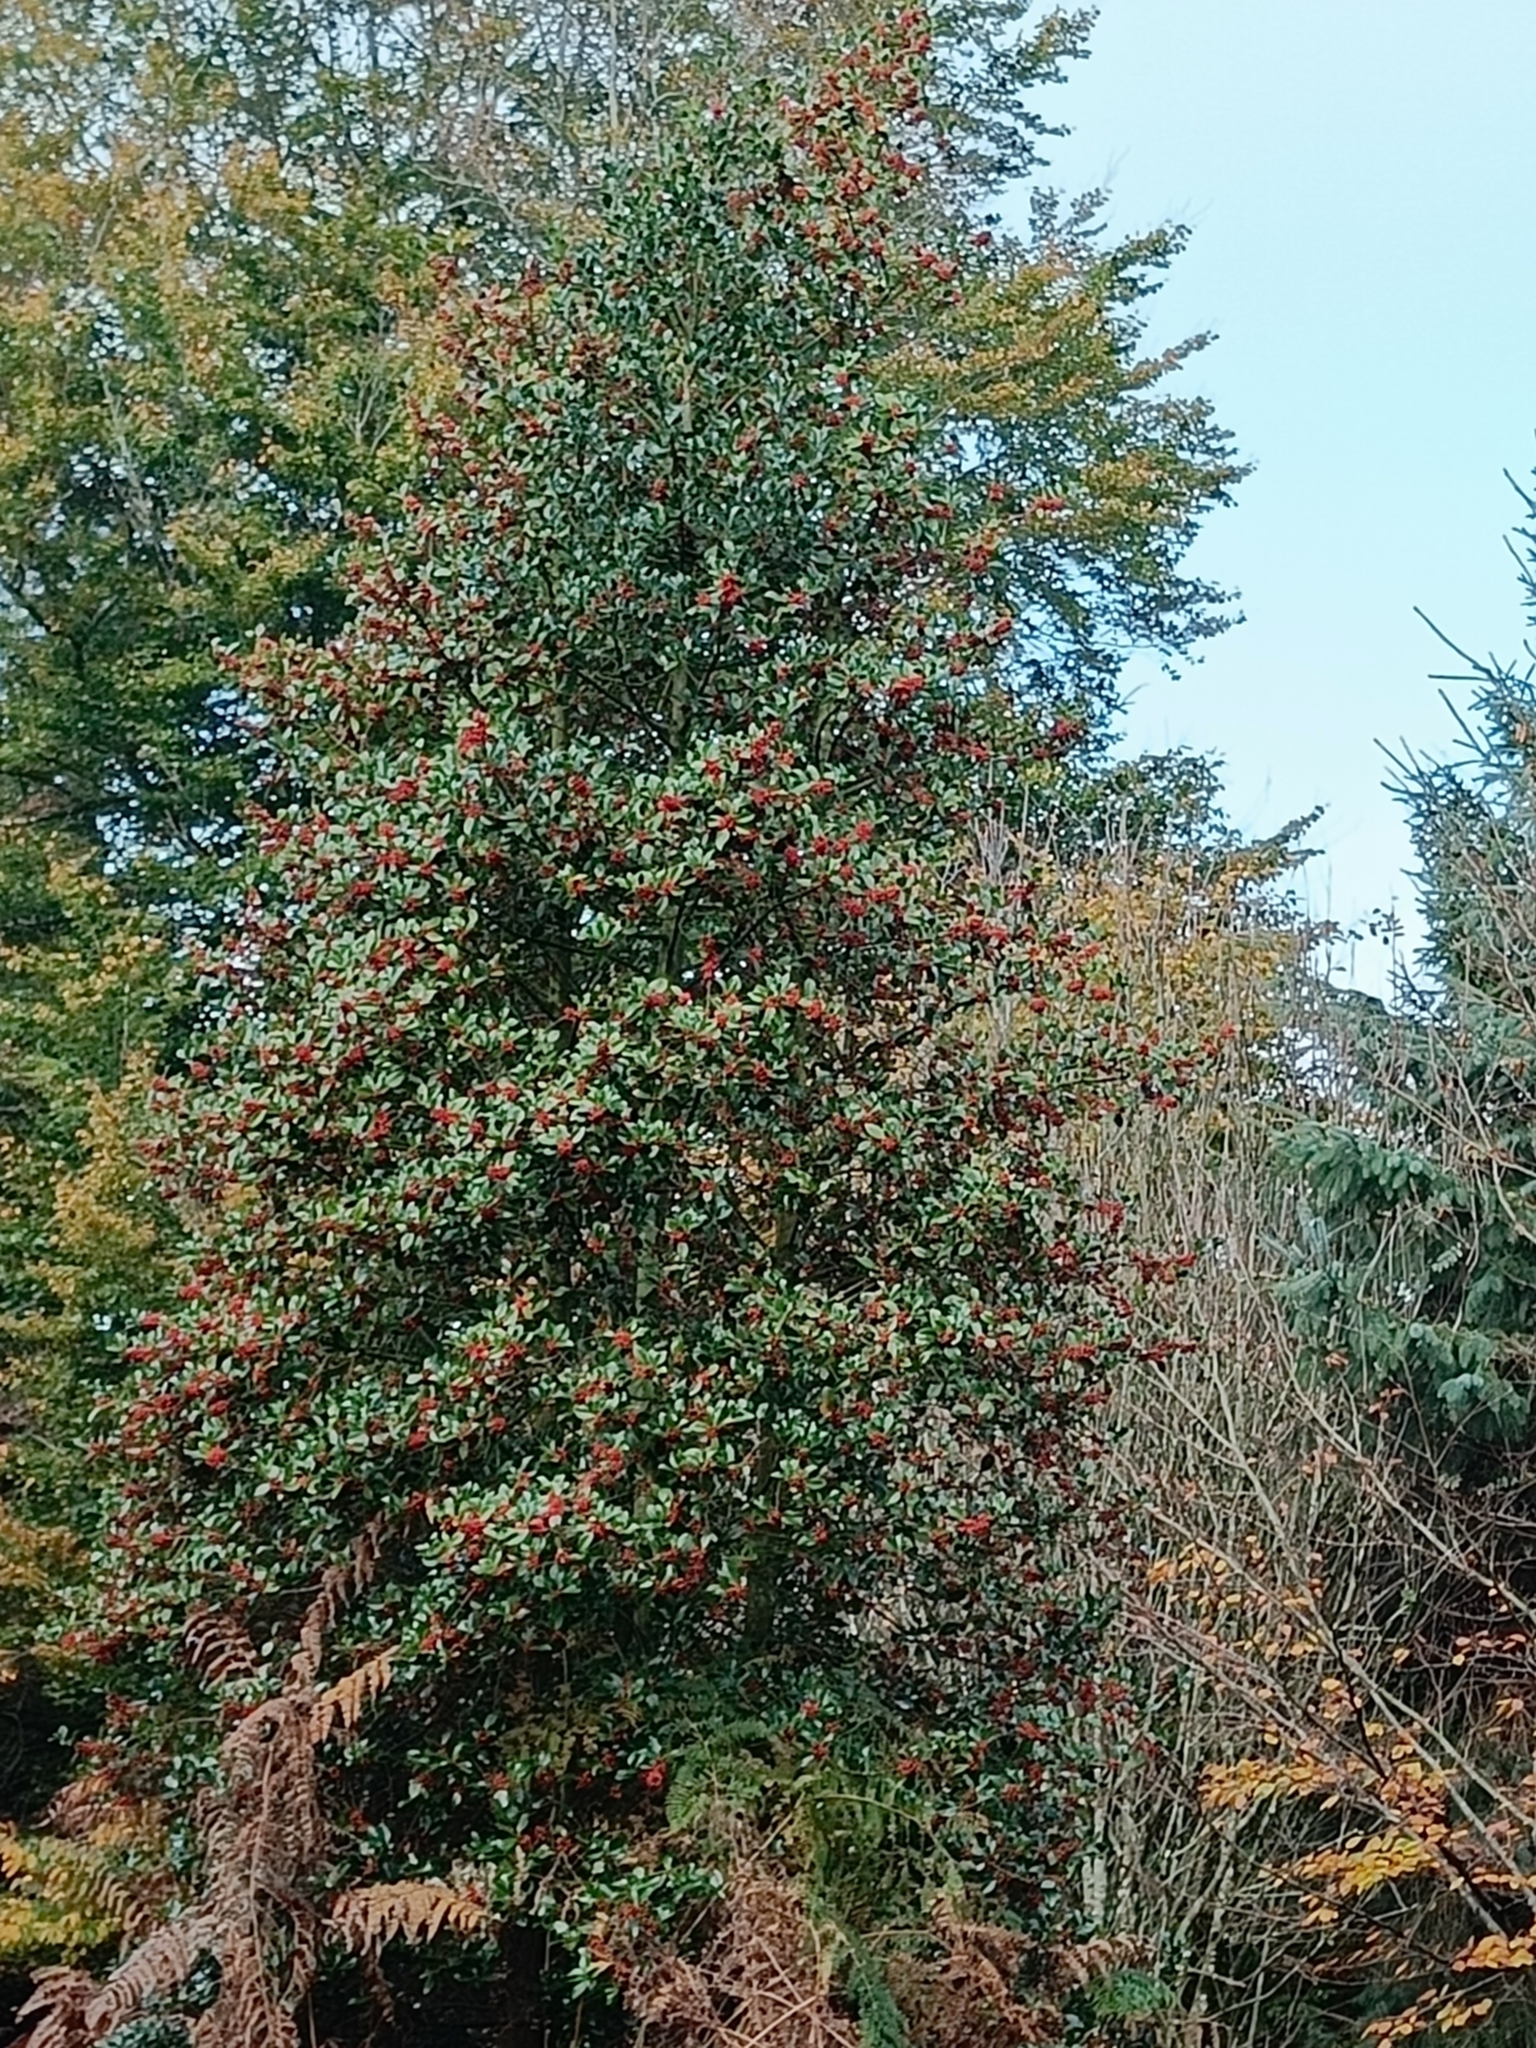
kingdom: Plantae
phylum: Tracheophyta
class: Magnoliopsida
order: Aquifoliales
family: Aquifoliaceae
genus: Ilex
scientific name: Ilex aquifolium
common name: English holly
